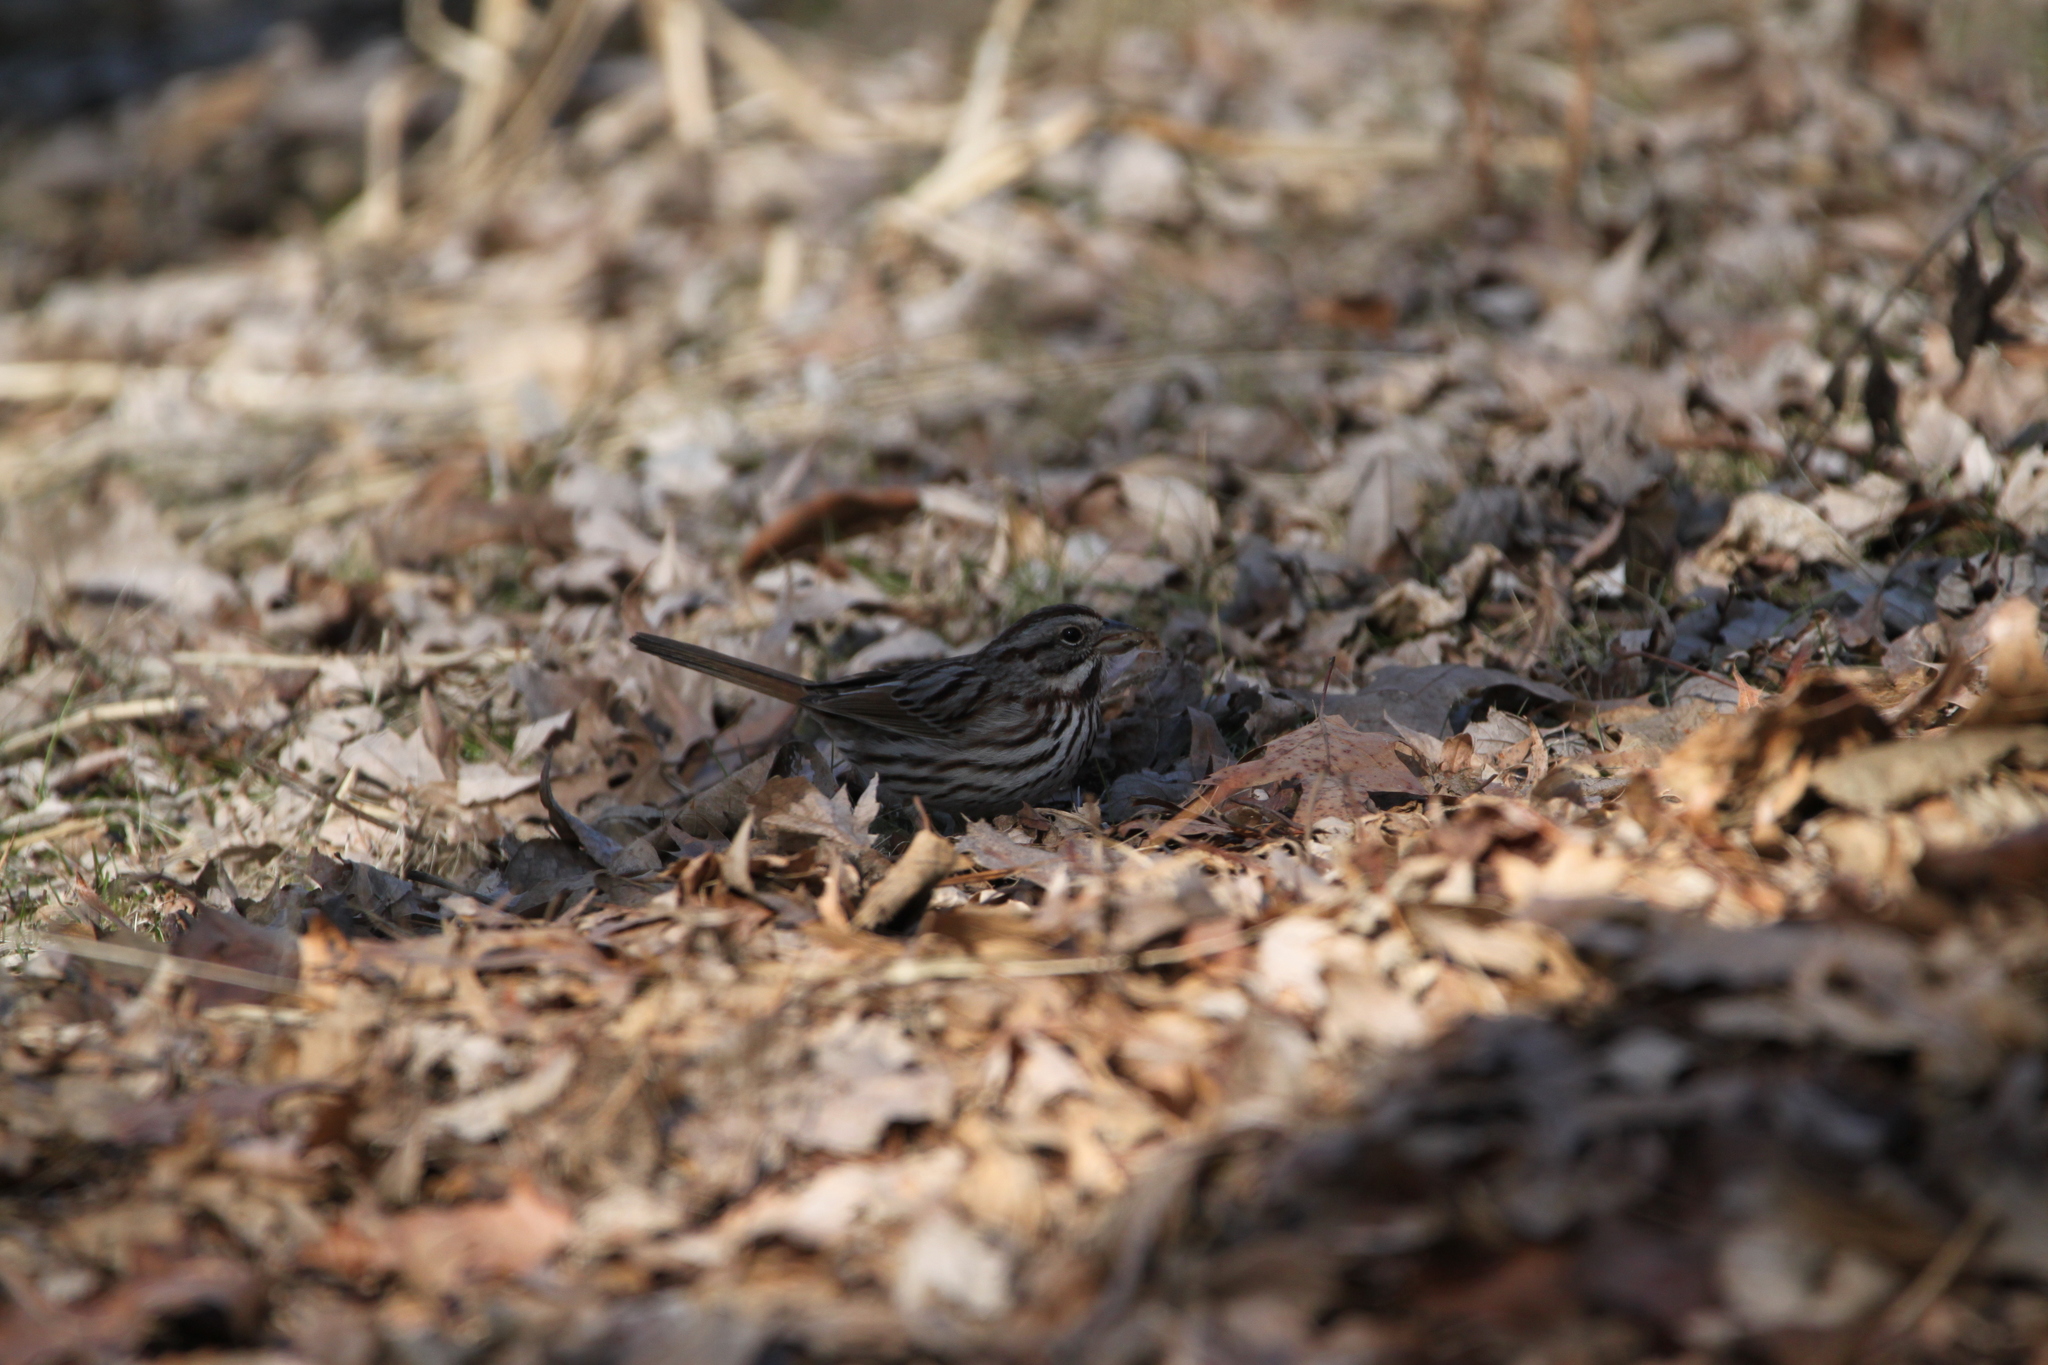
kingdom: Animalia
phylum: Chordata
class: Aves
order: Passeriformes
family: Passerellidae
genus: Melospiza
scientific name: Melospiza melodia
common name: Song sparrow
